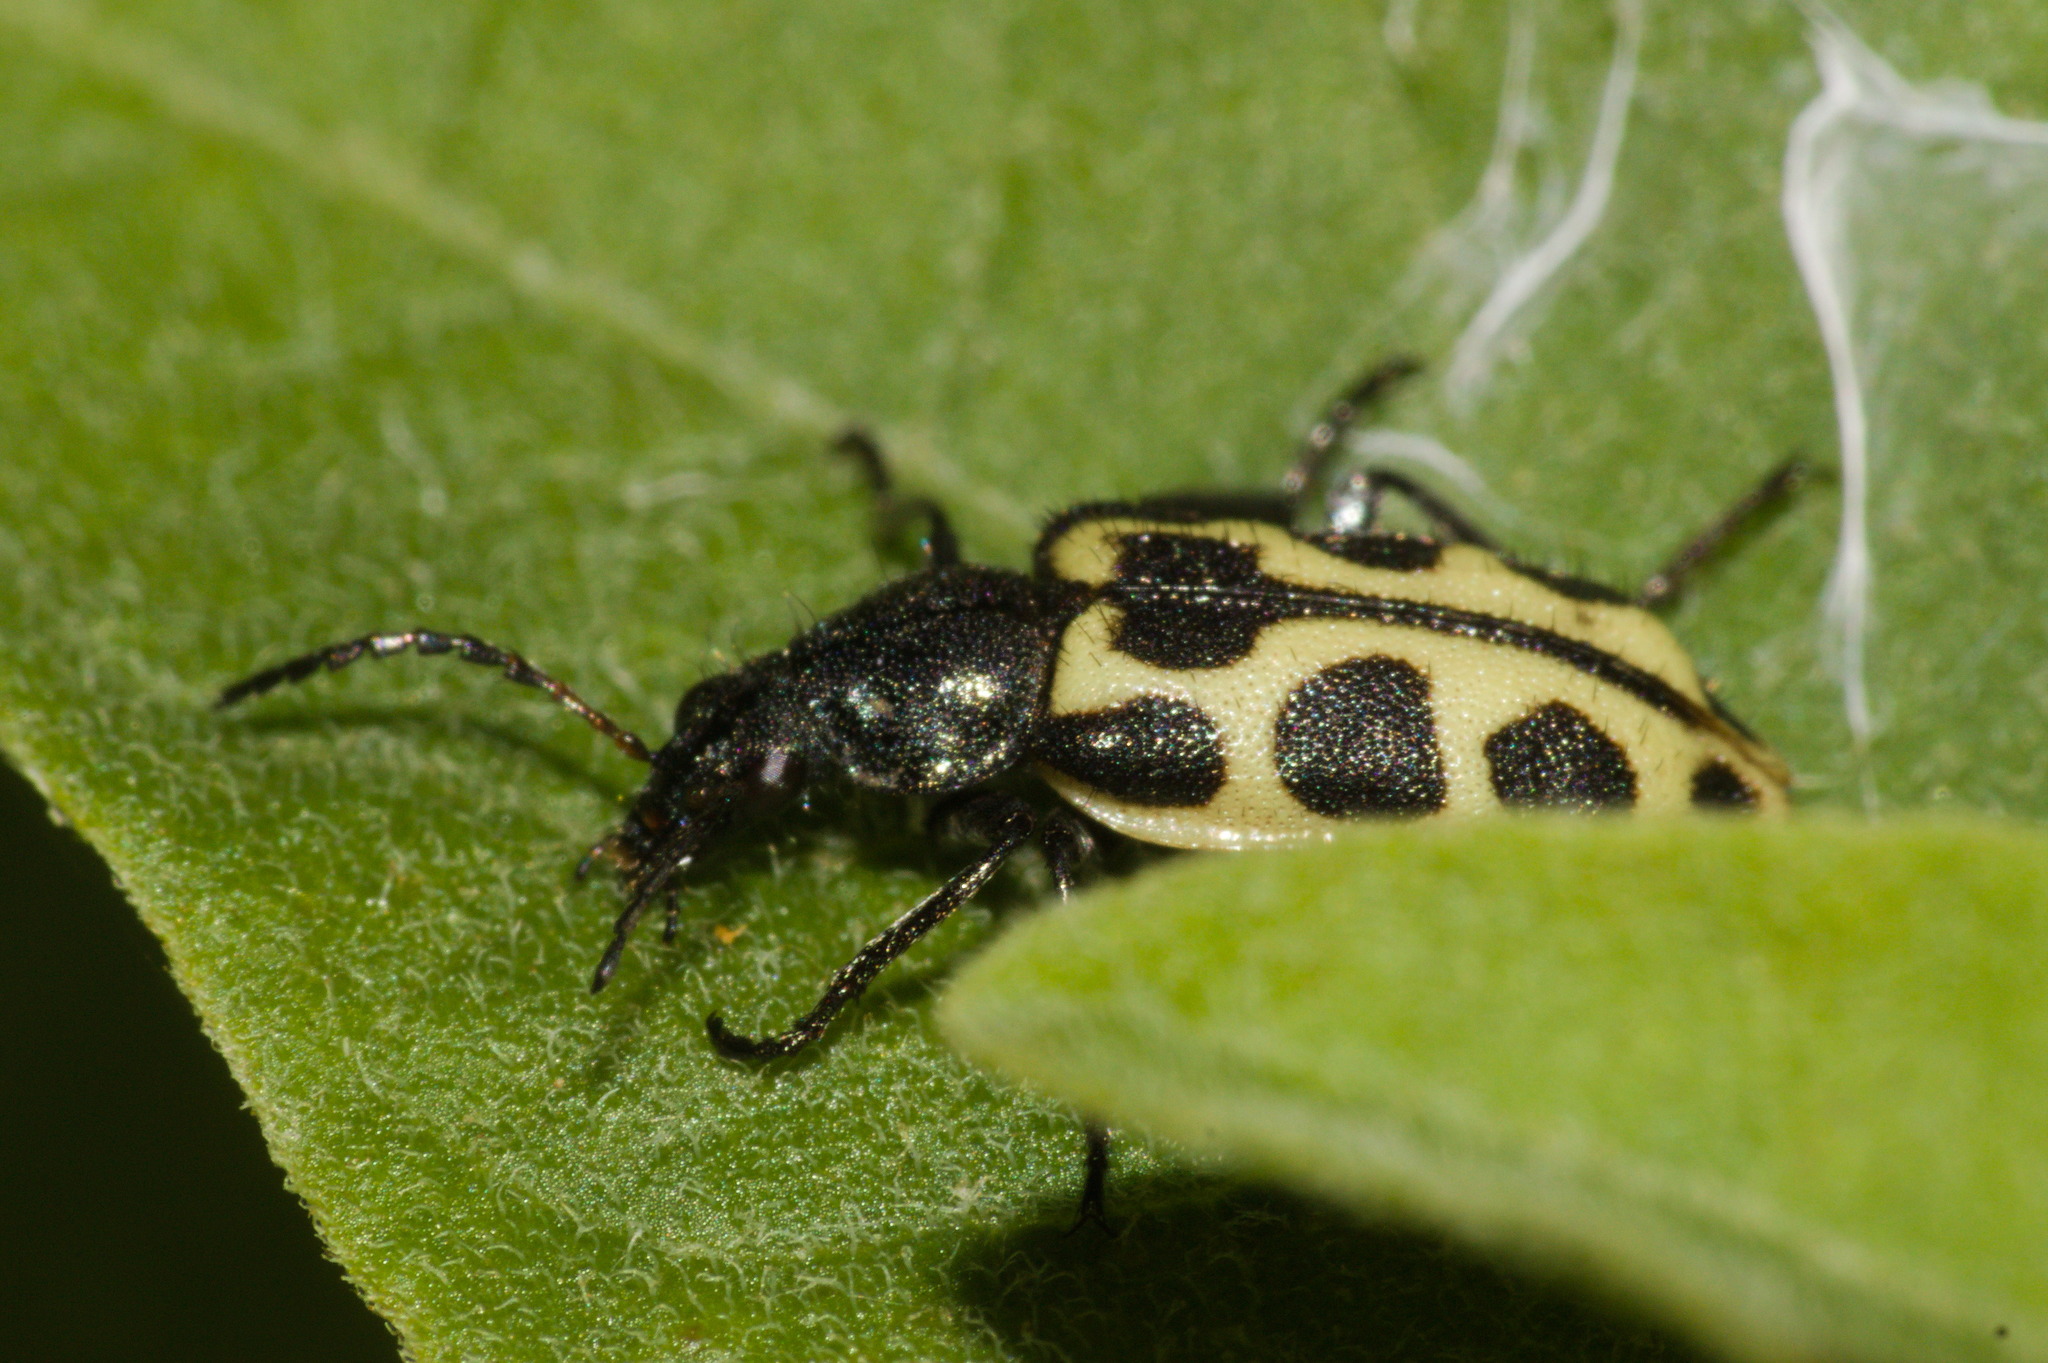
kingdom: Animalia
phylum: Arthropoda
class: Insecta
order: Coleoptera
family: Melyridae
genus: Astylus
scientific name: Astylus
